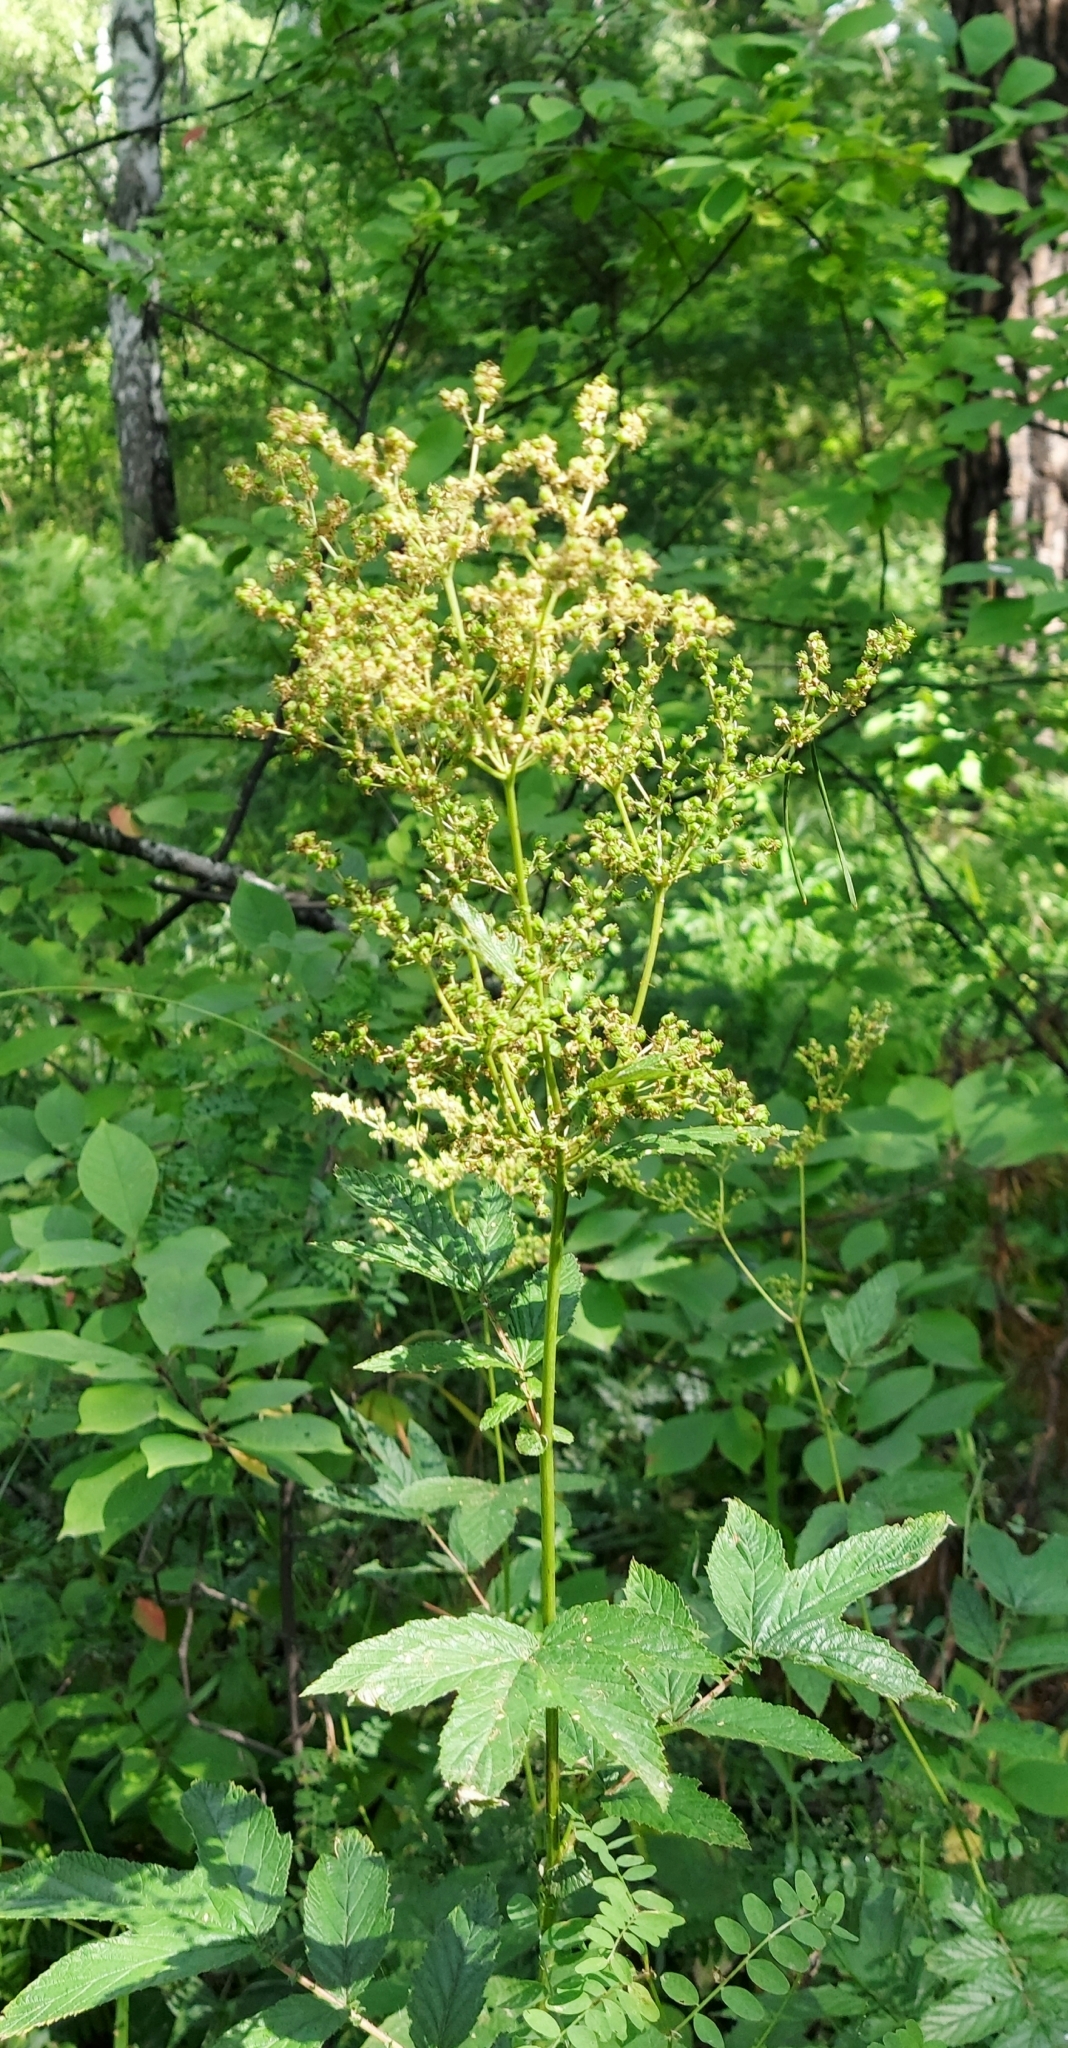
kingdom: Plantae
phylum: Tracheophyta
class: Magnoliopsida
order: Rosales
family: Rosaceae
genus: Filipendula
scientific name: Filipendula ulmaria
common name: Meadowsweet
